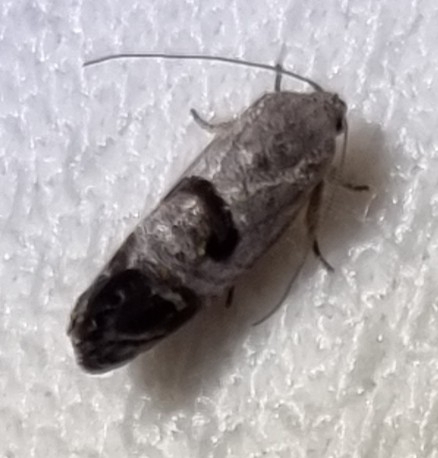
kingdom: Animalia
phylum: Arthropoda
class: Insecta
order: Lepidoptera
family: Depressariidae
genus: Eupselia
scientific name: Eupselia beatella
